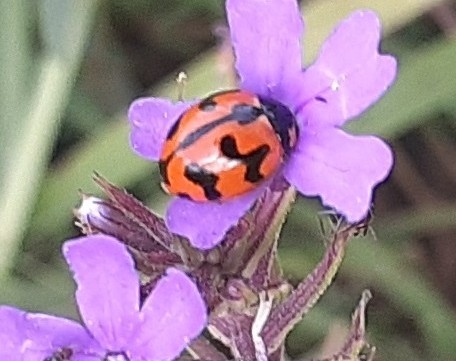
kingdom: Animalia
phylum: Arthropoda
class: Insecta
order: Coleoptera
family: Coccinellidae
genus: Coccinella
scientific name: Coccinella transversalis
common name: Transverse lady beetle
